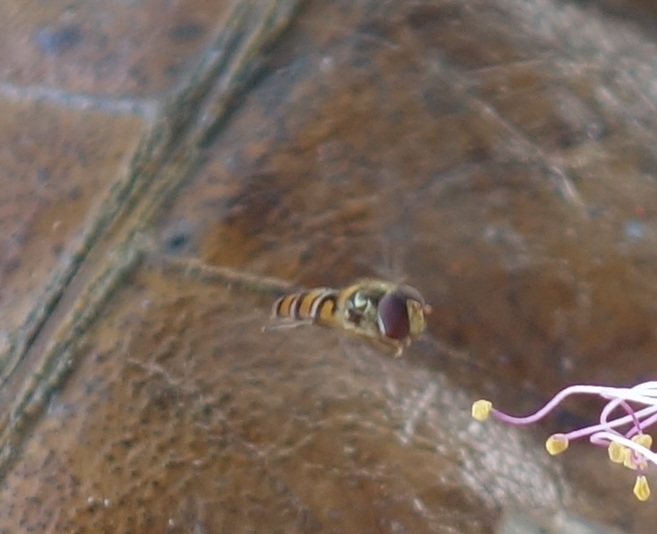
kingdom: Animalia
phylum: Arthropoda
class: Insecta
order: Diptera
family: Syrphidae
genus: Episyrphus
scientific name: Episyrphus balteatus
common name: Marmalade hoverfly
